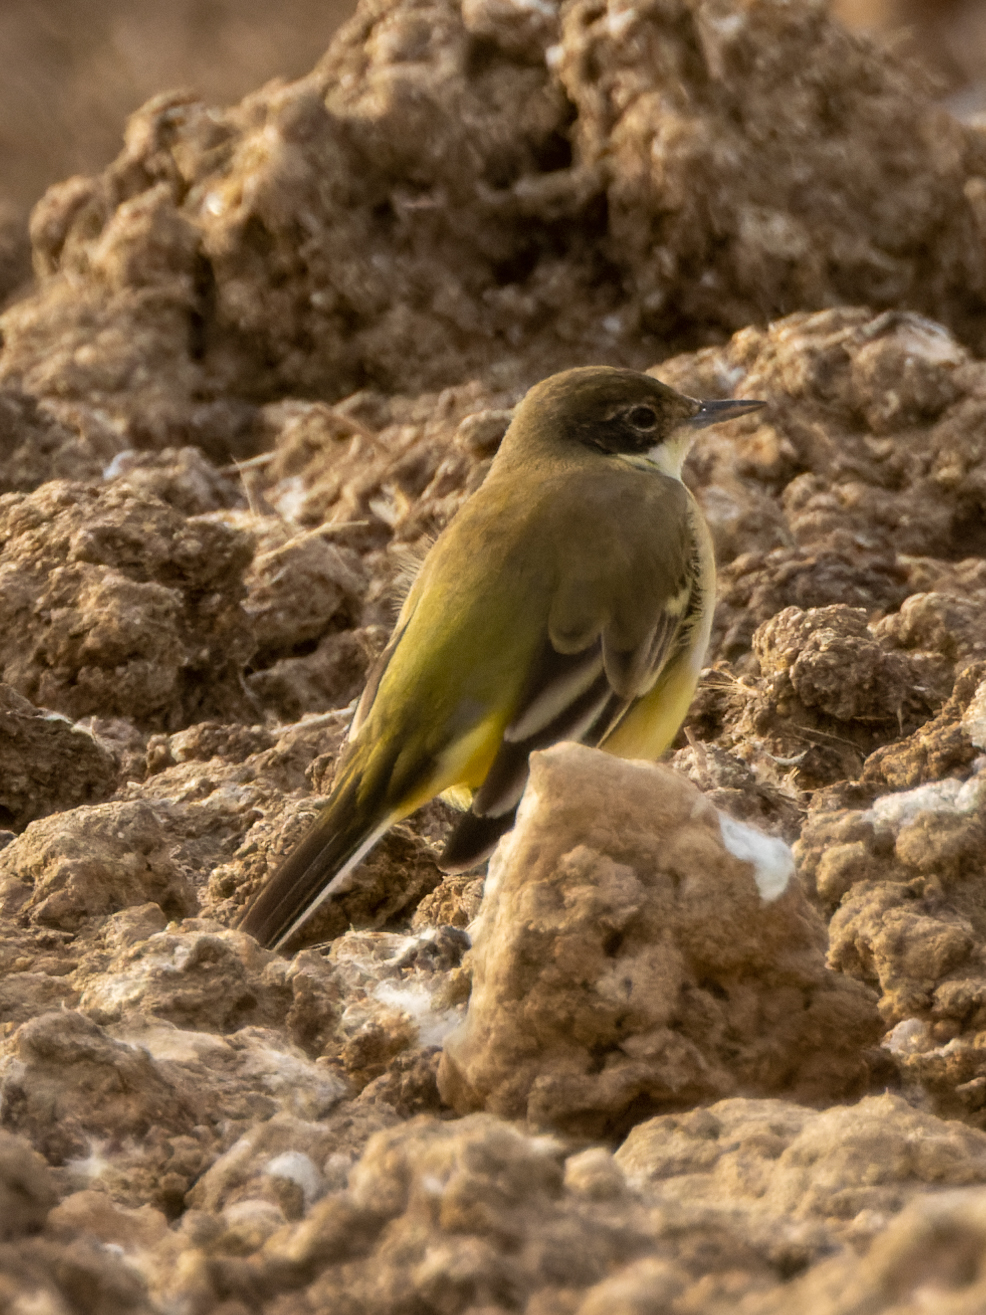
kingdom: Animalia
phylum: Chordata
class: Aves
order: Passeriformes
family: Motacillidae
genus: Motacilla
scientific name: Motacilla flava
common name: Western yellow wagtail
